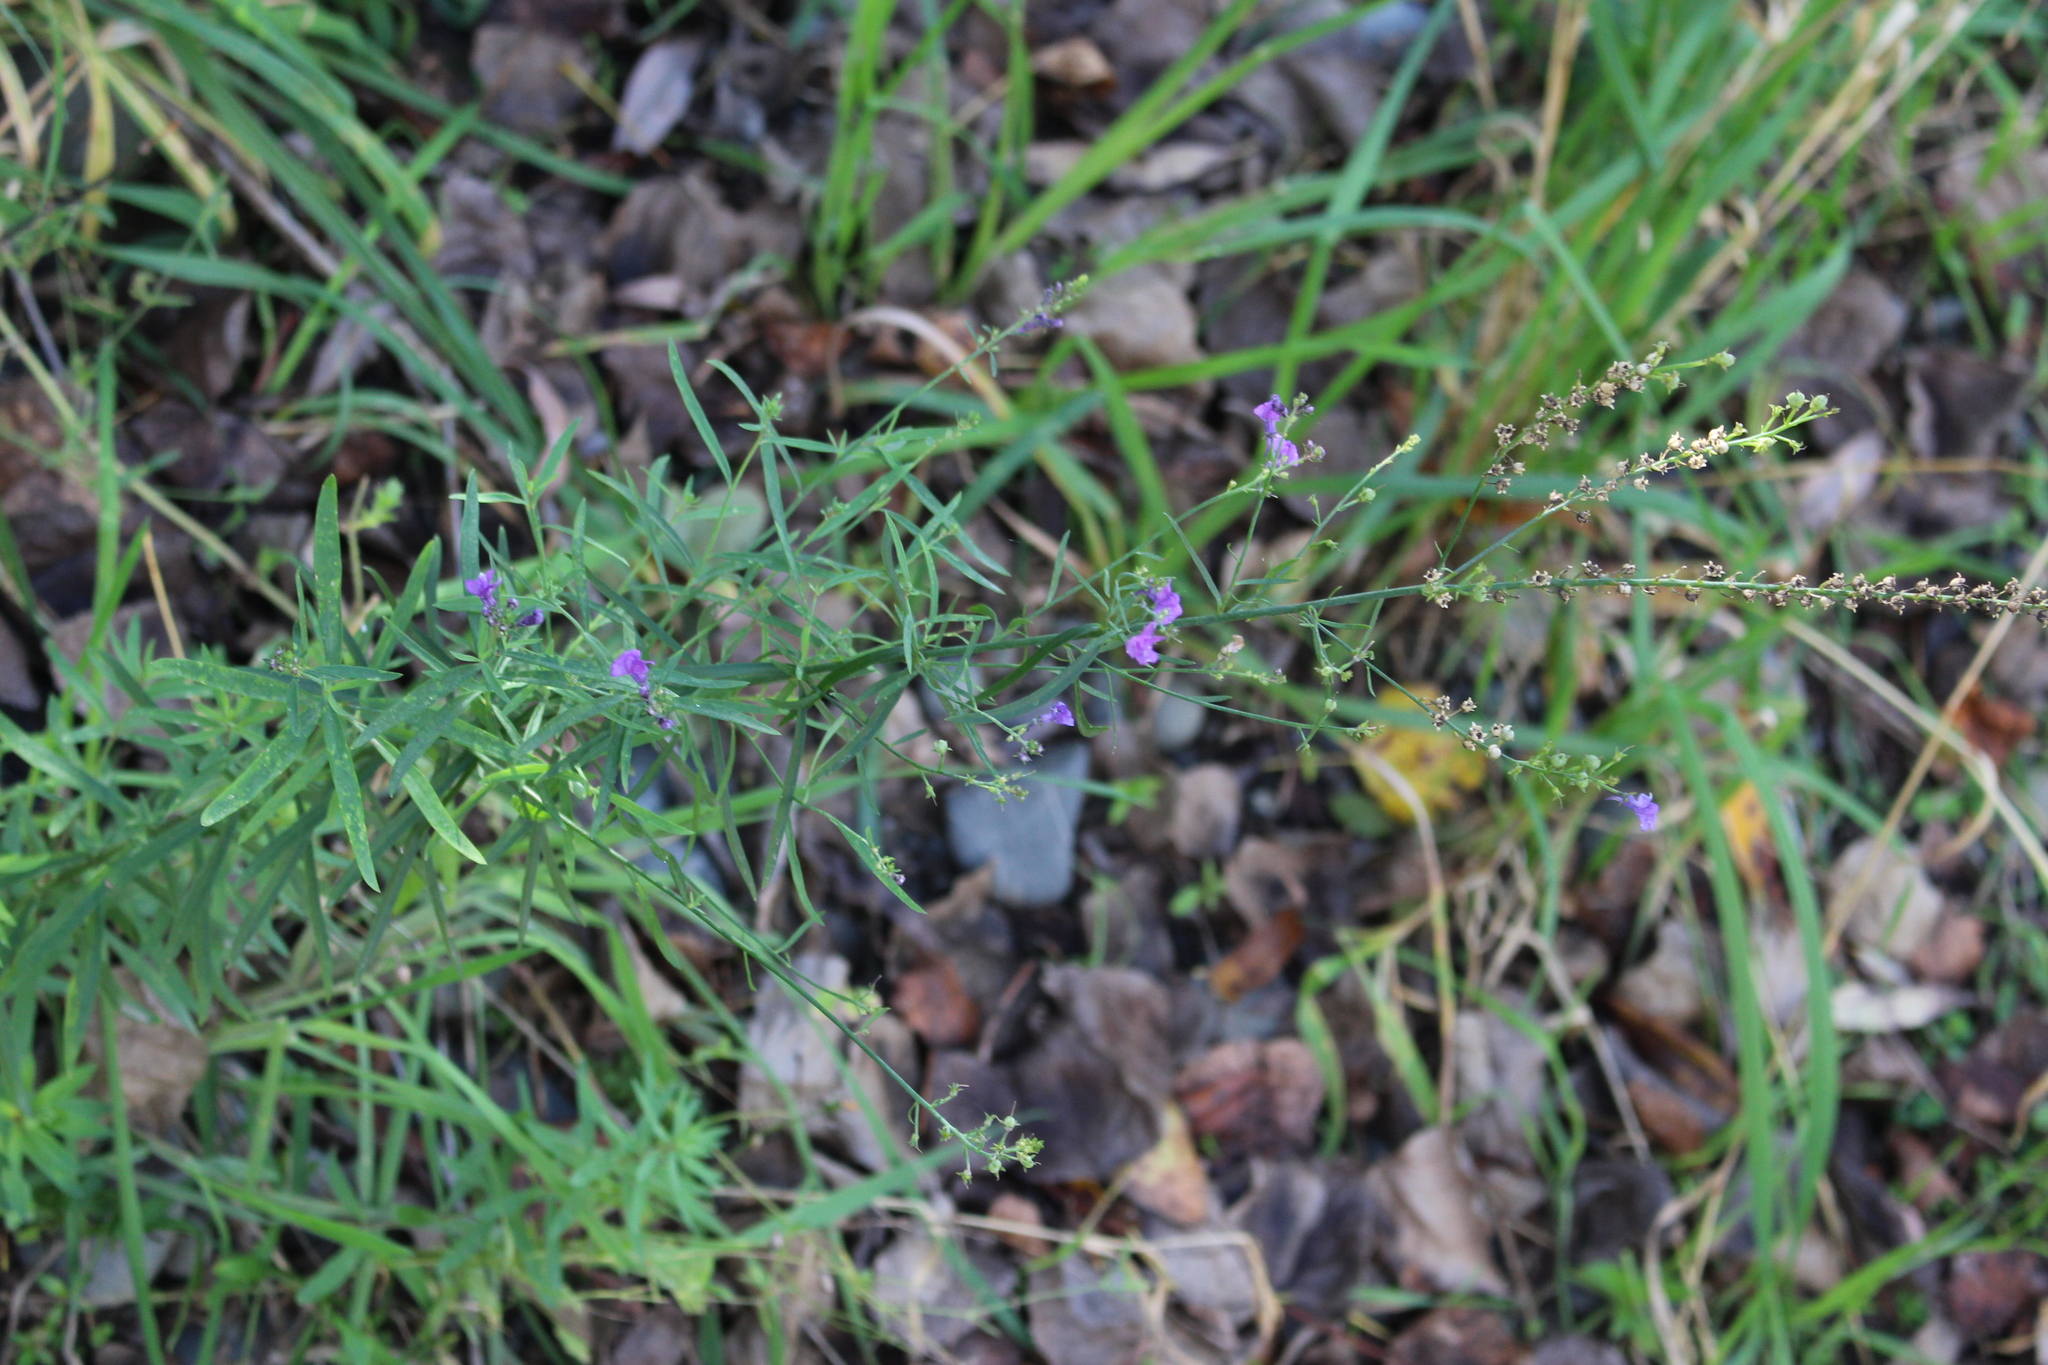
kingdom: Plantae
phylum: Tracheophyta
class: Magnoliopsida
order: Lamiales
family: Plantaginaceae
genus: Linaria
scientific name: Linaria purpurea
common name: Purple toadflax
